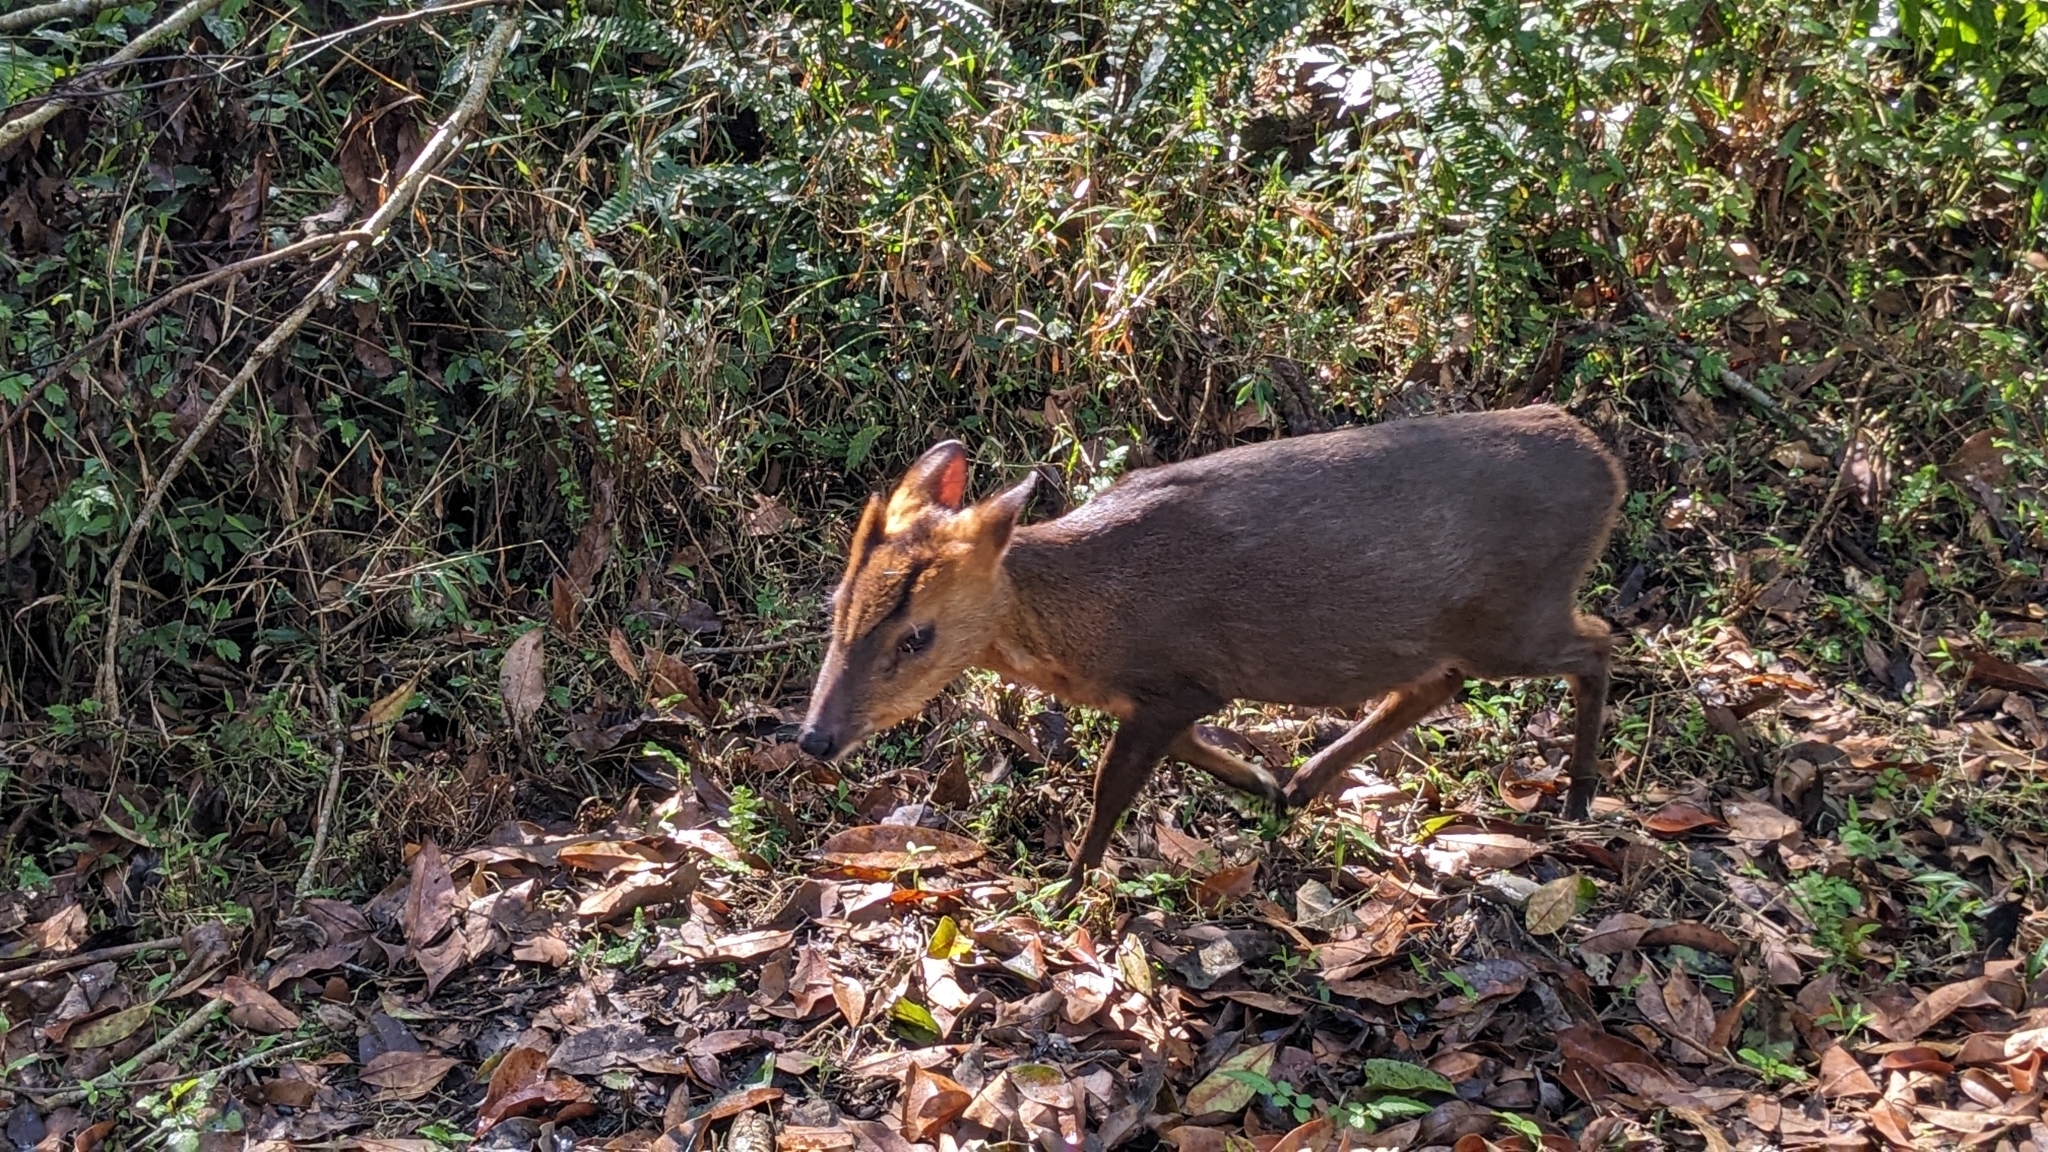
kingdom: Animalia
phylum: Chordata
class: Mammalia
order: Artiodactyla
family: Cervidae
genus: Muntiacus
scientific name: Muntiacus reevesi
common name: Reeves' muntjac
